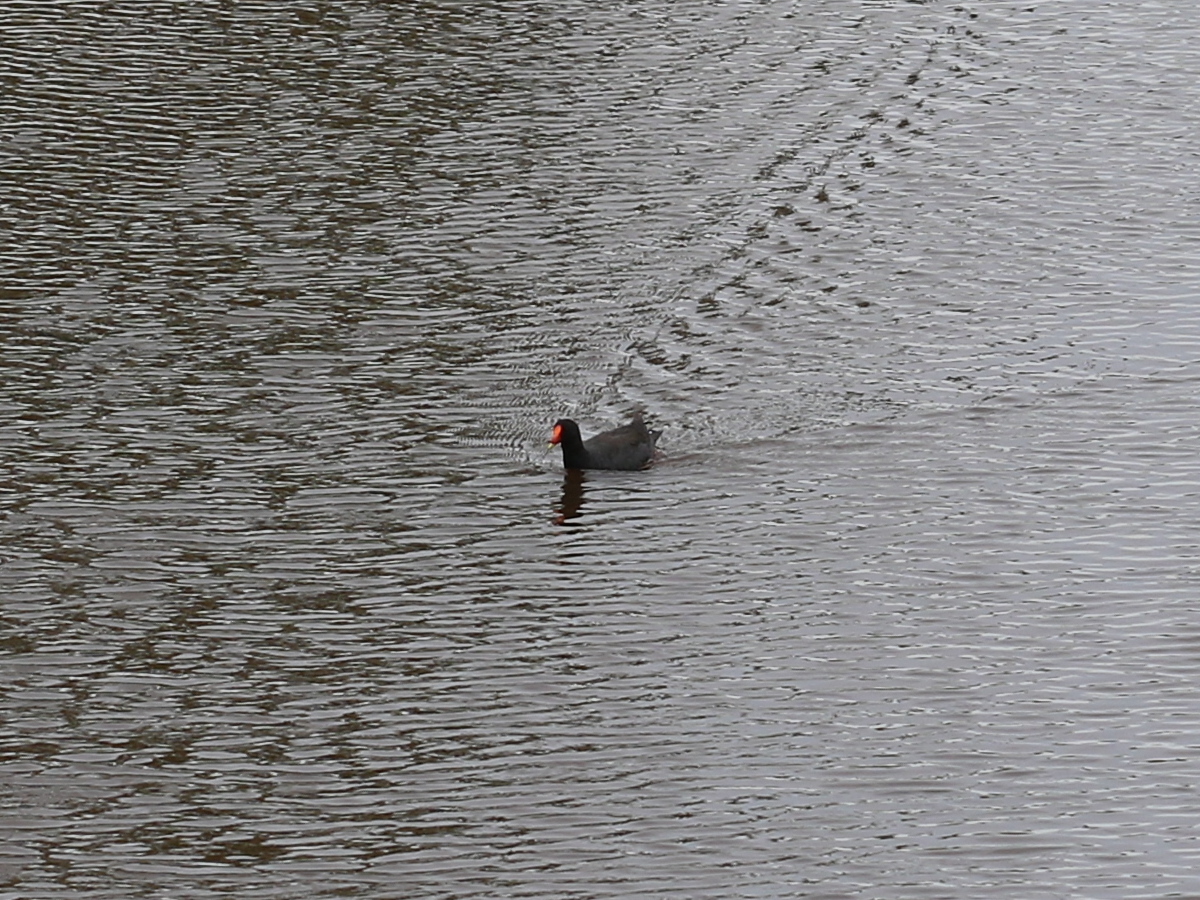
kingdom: Animalia
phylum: Chordata
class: Aves
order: Gruiformes
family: Rallidae
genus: Gallinula
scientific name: Gallinula tenebrosa
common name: Dusky moorhen
